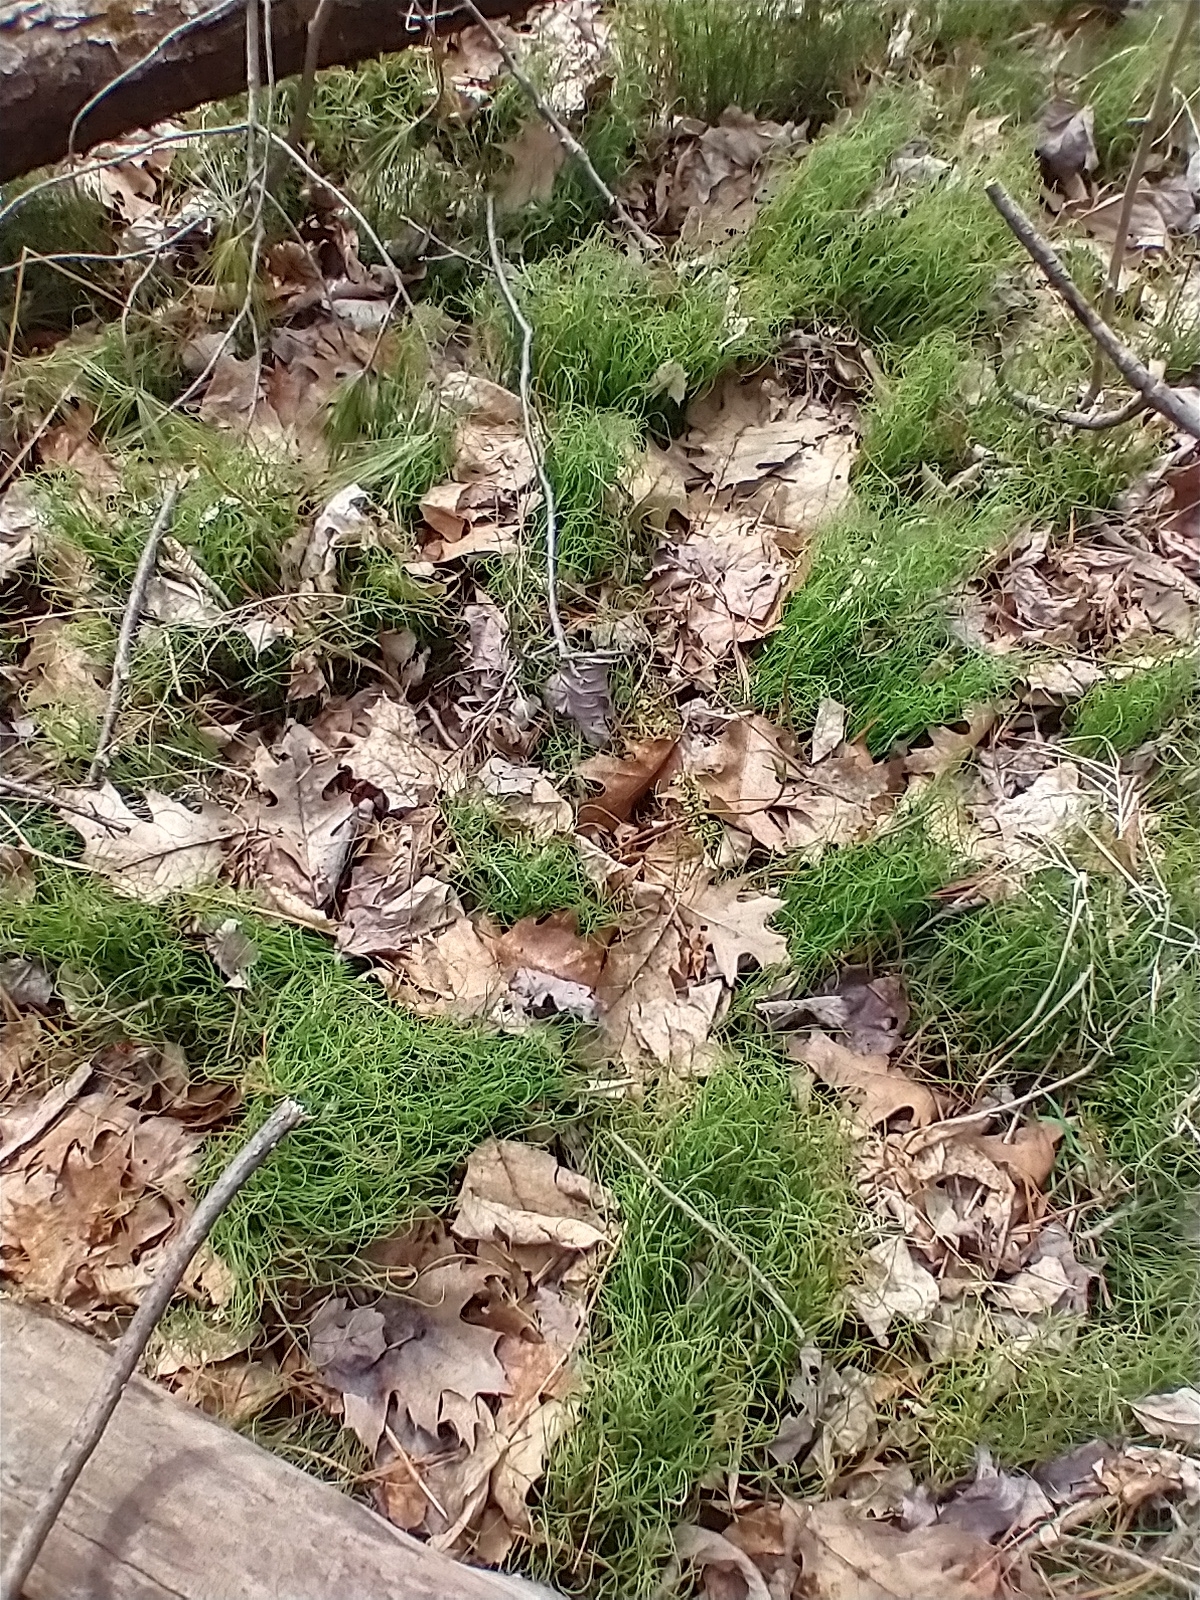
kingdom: Plantae
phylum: Tracheophyta
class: Polypodiopsida
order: Equisetales
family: Equisetaceae
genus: Equisetum
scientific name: Equisetum scirpoides
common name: Delicate horsetail
